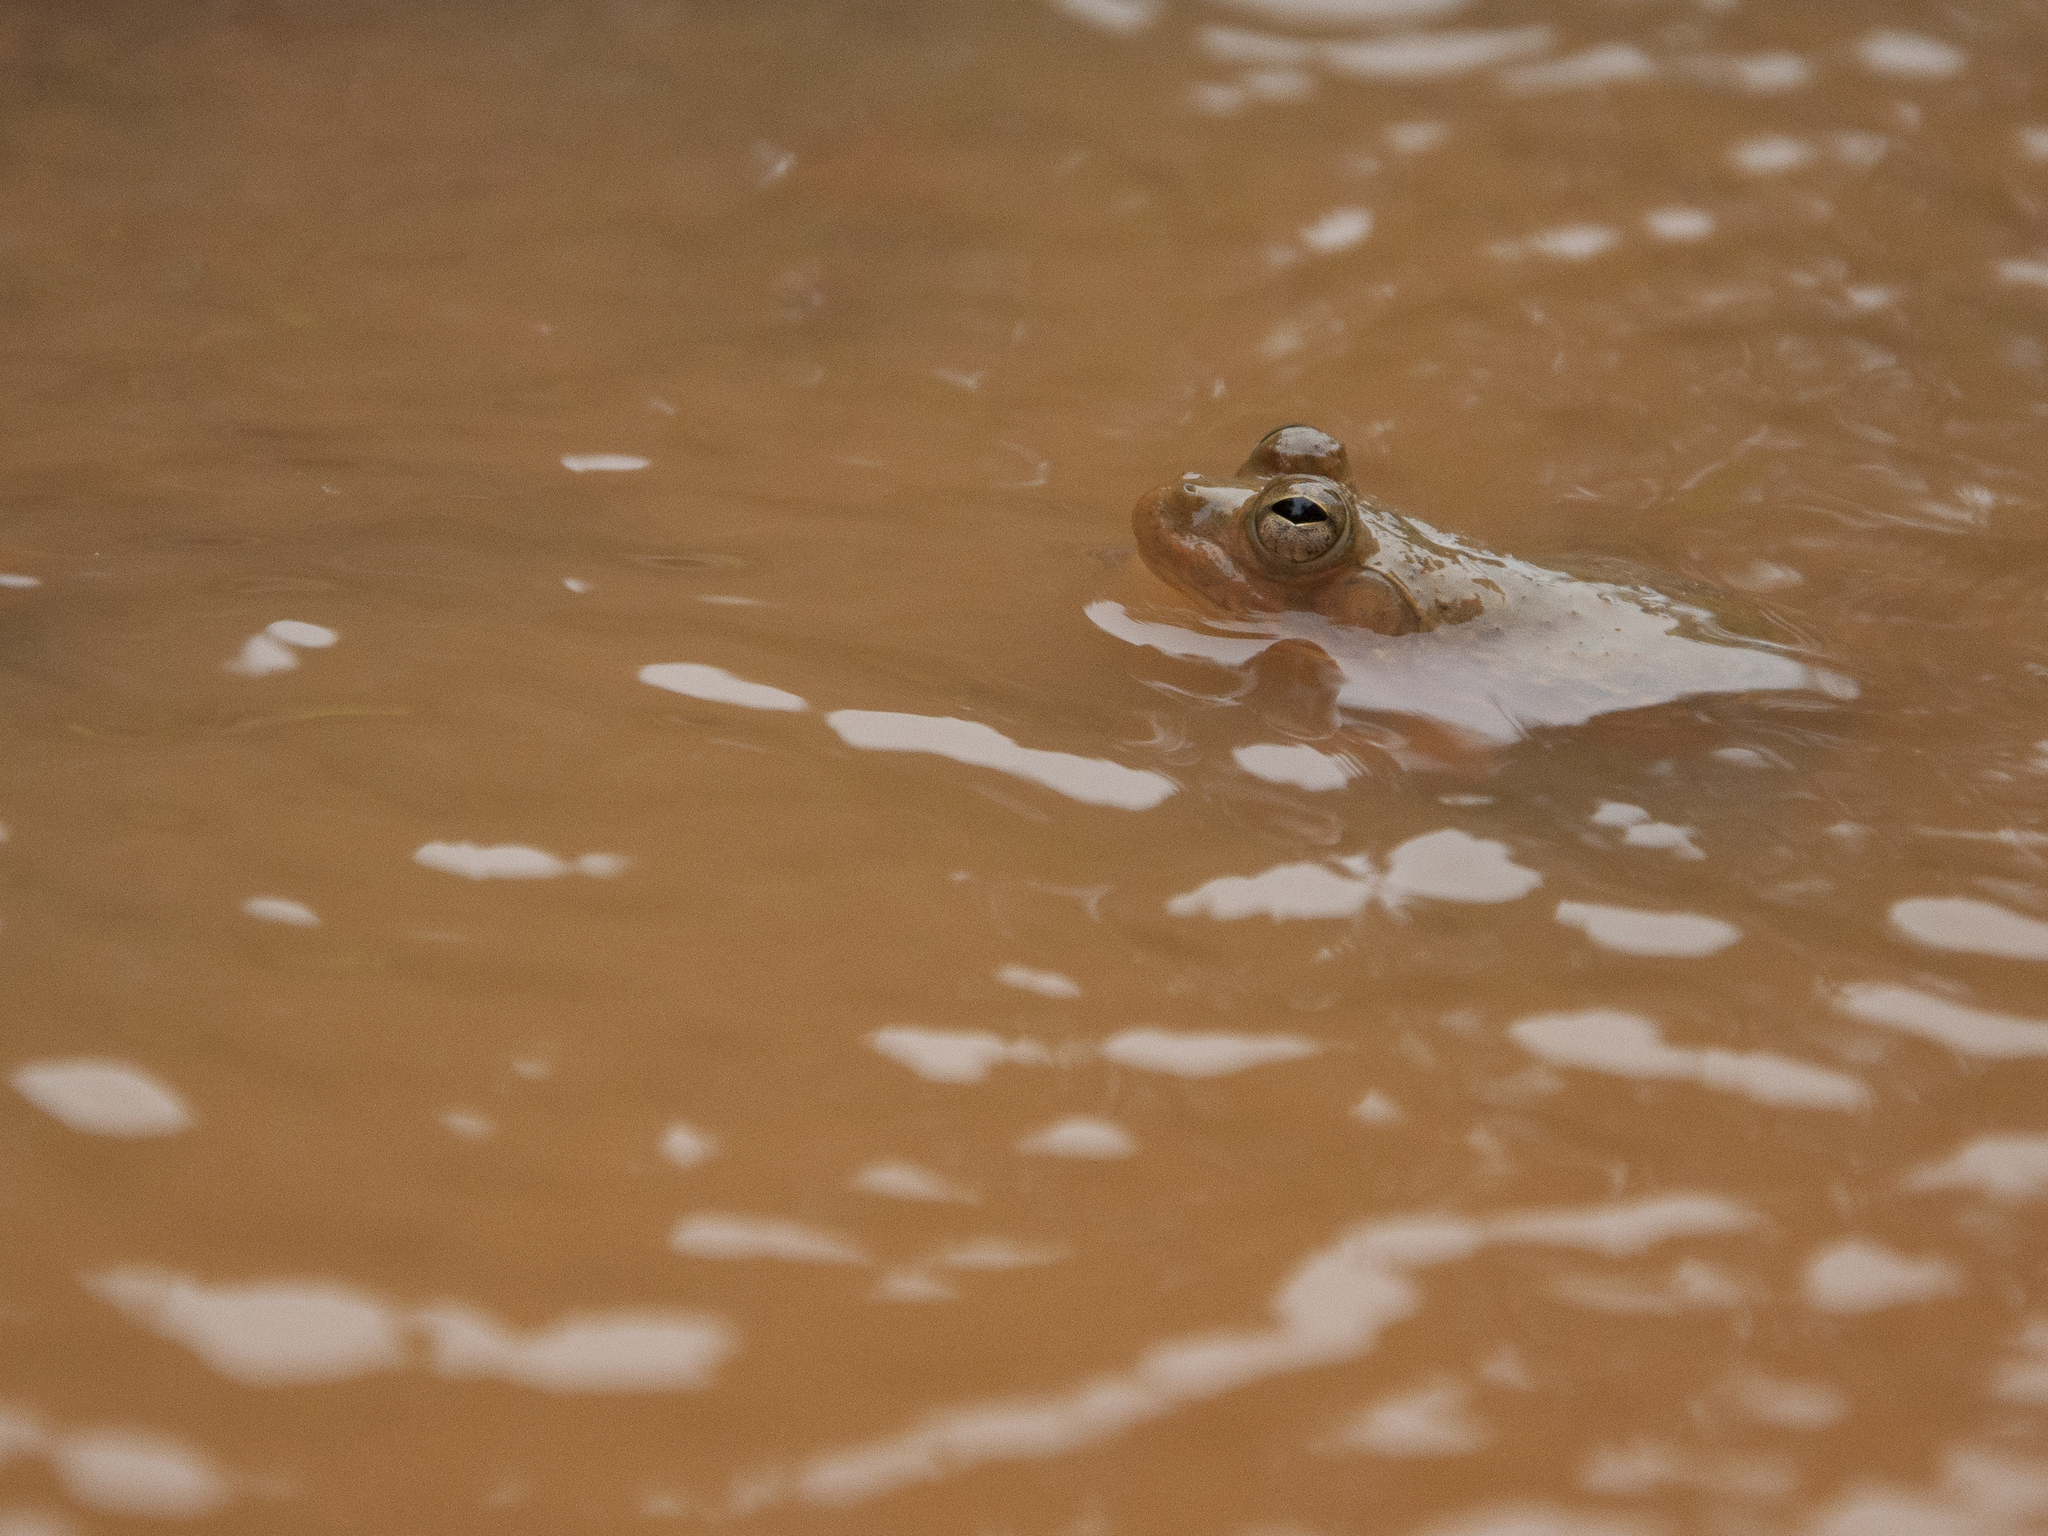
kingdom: Animalia
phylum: Chordata
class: Amphibia
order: Anura
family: Dicroglossidae
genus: Euphlyctis
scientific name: Euphlyctis cyanophlyctis
